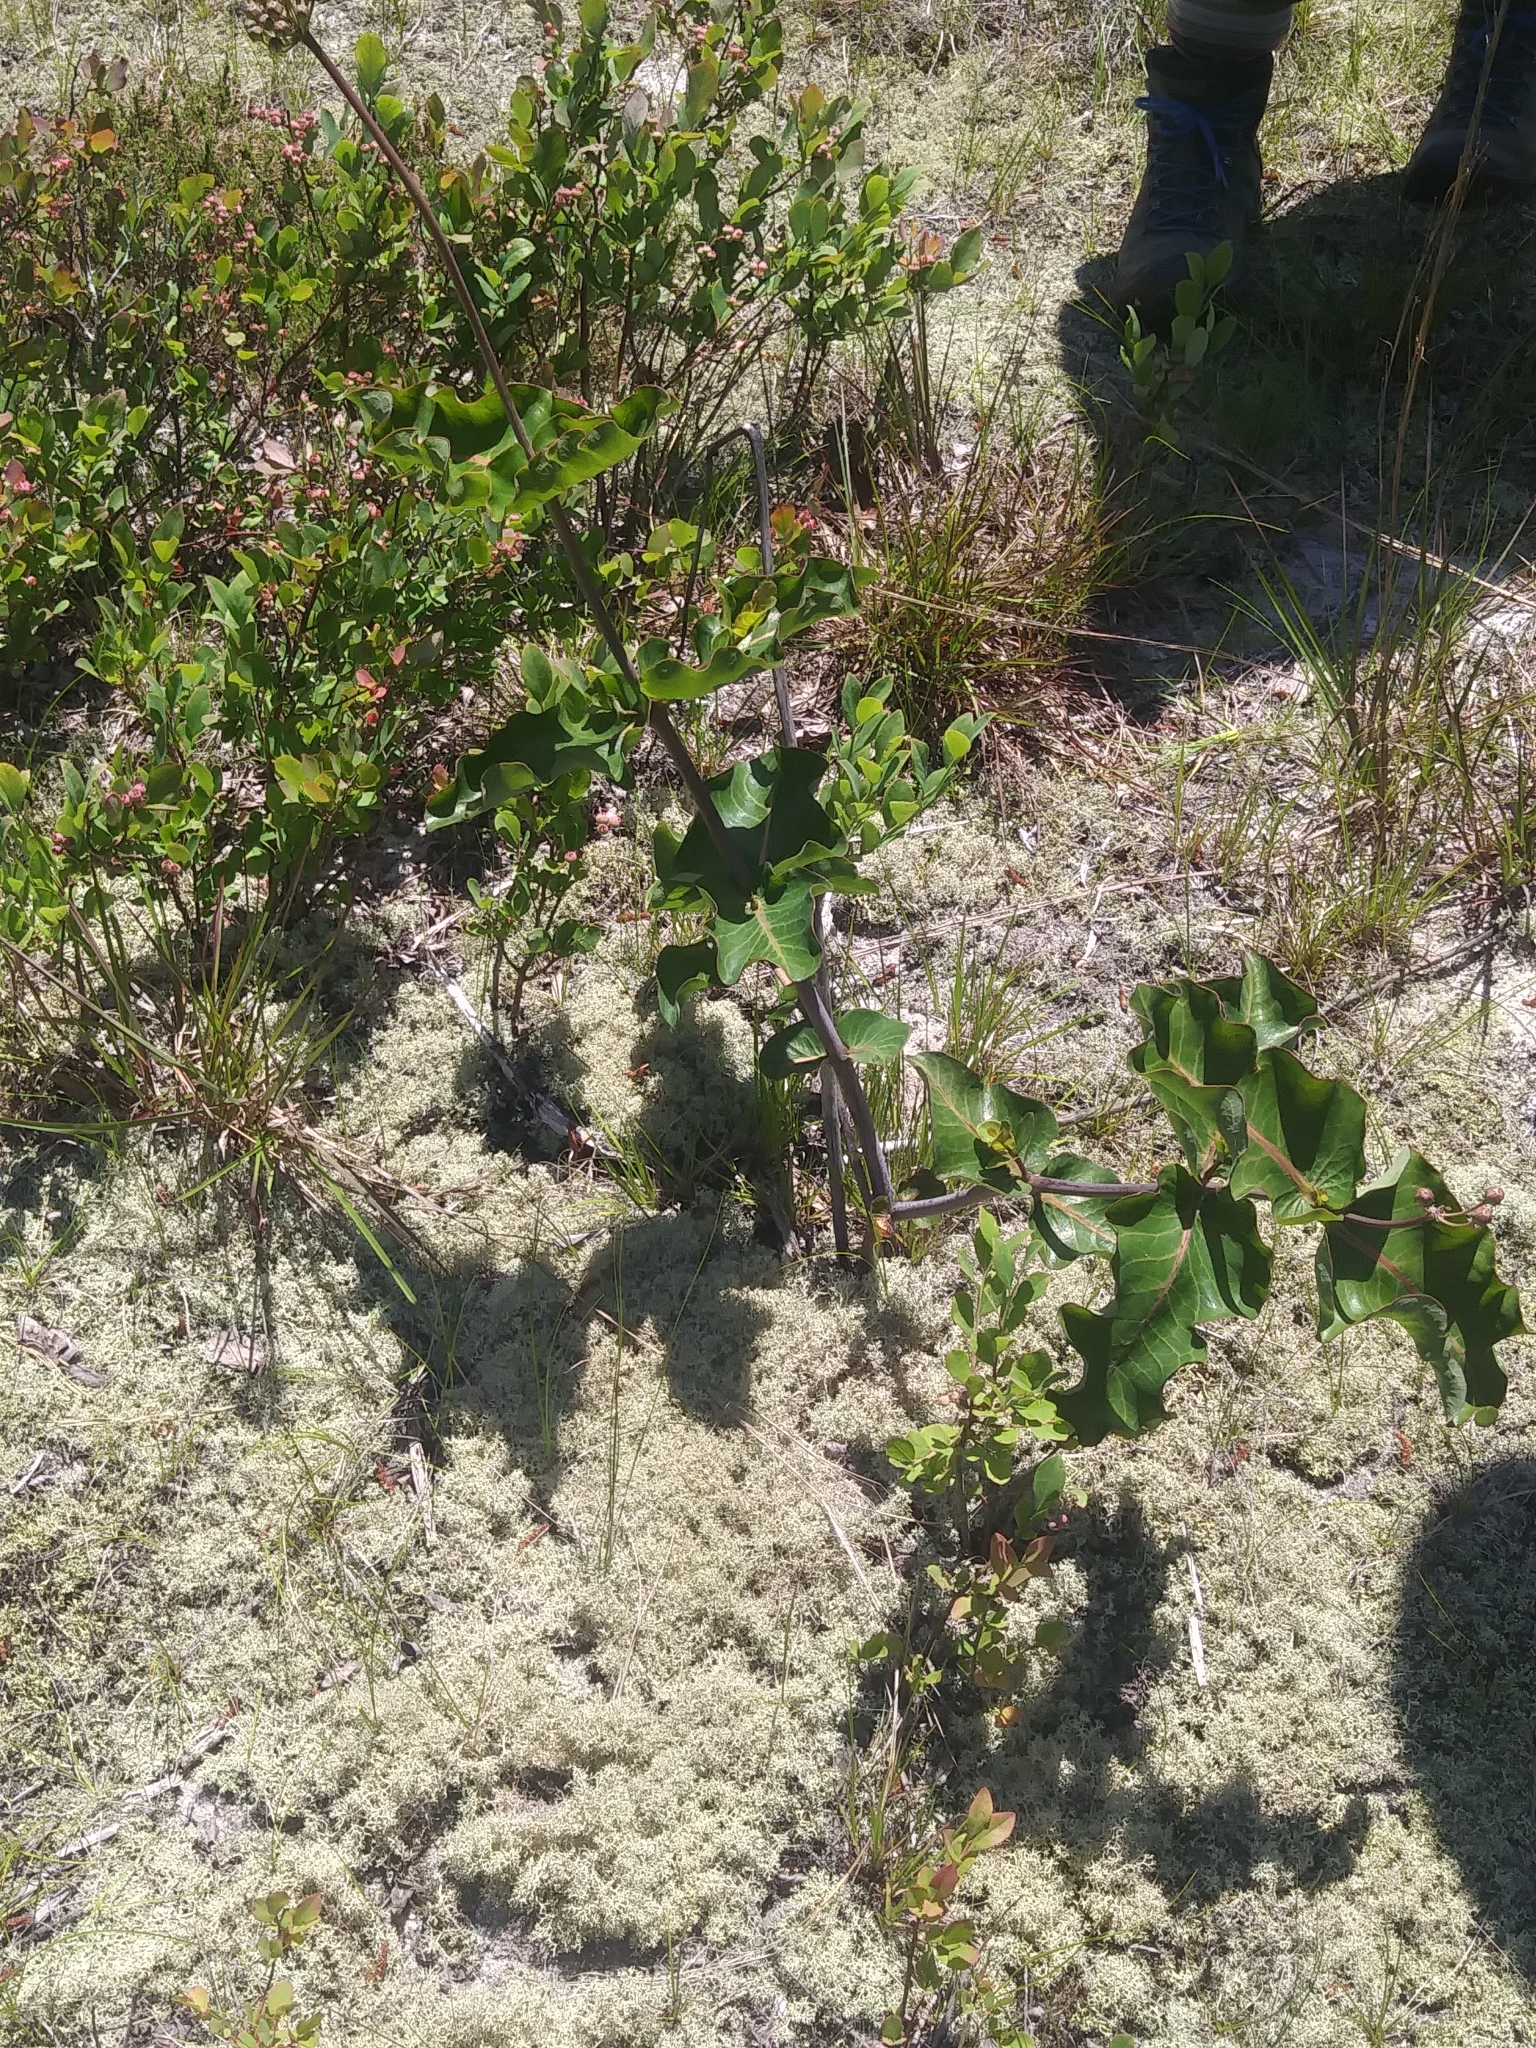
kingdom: Plantae
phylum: Tracheophyta
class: Magnoliopsida
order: Gentianales
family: Apocynaceae
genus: Asclepias
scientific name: Asclepias amplexicaulis
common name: Blunt-leaf milkweed
